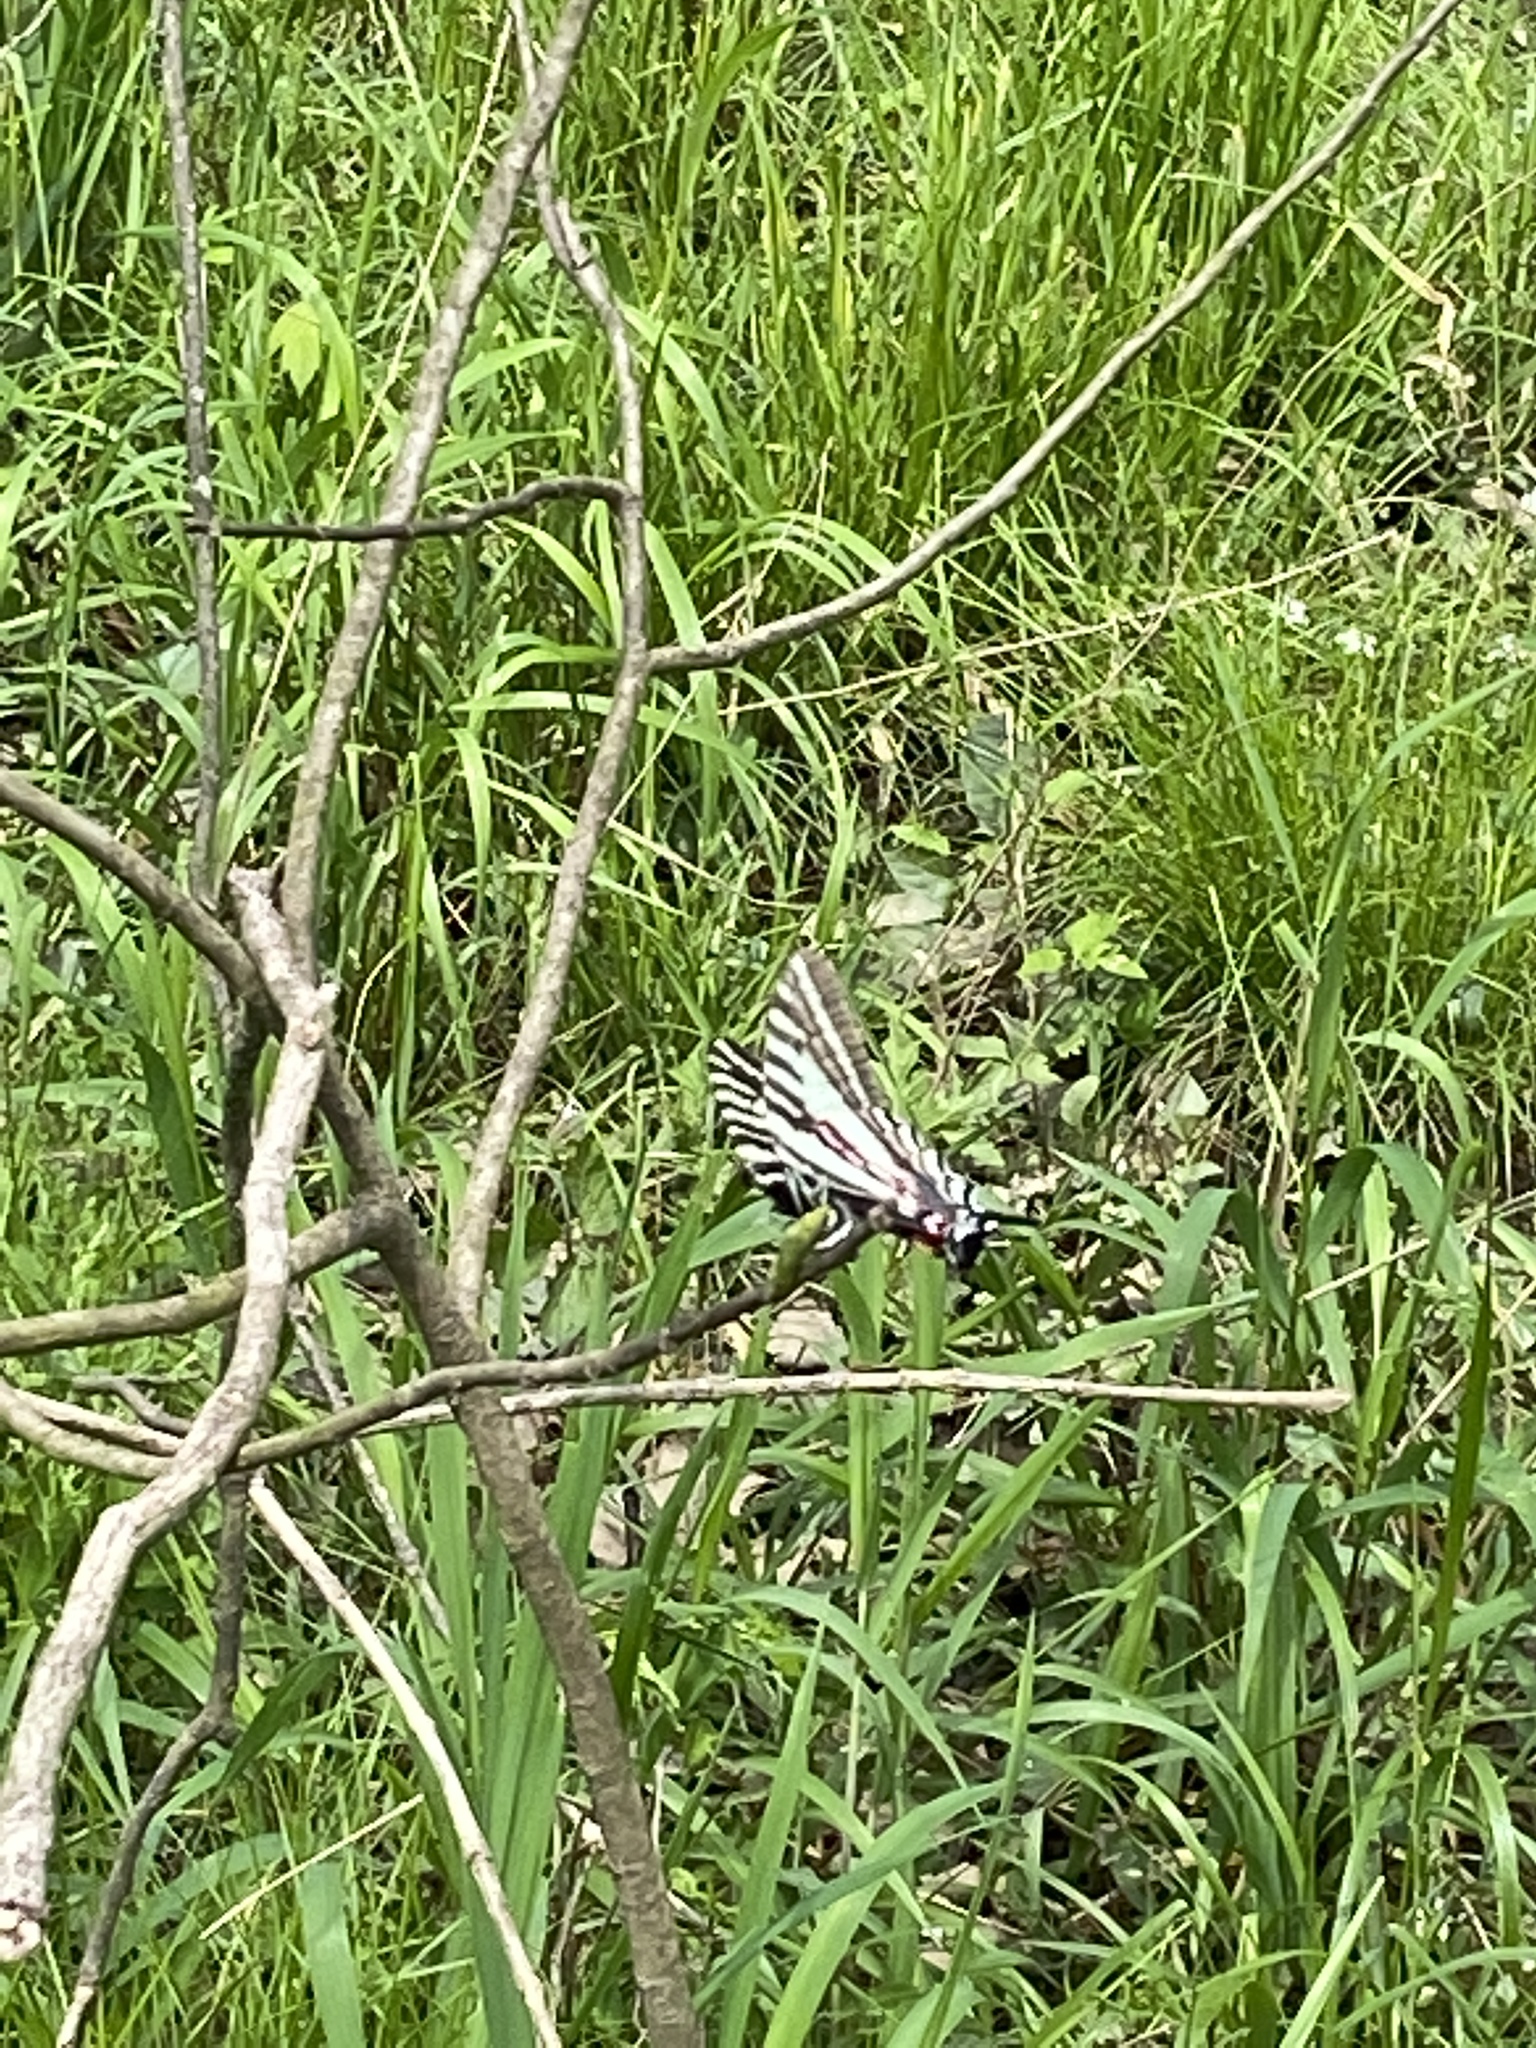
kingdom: Animalia
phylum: Arthropoda
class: Insecta
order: Lepidoptera
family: Papilionidae
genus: Protographium
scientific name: Protographium marcellus
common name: Zebra swallowtail
